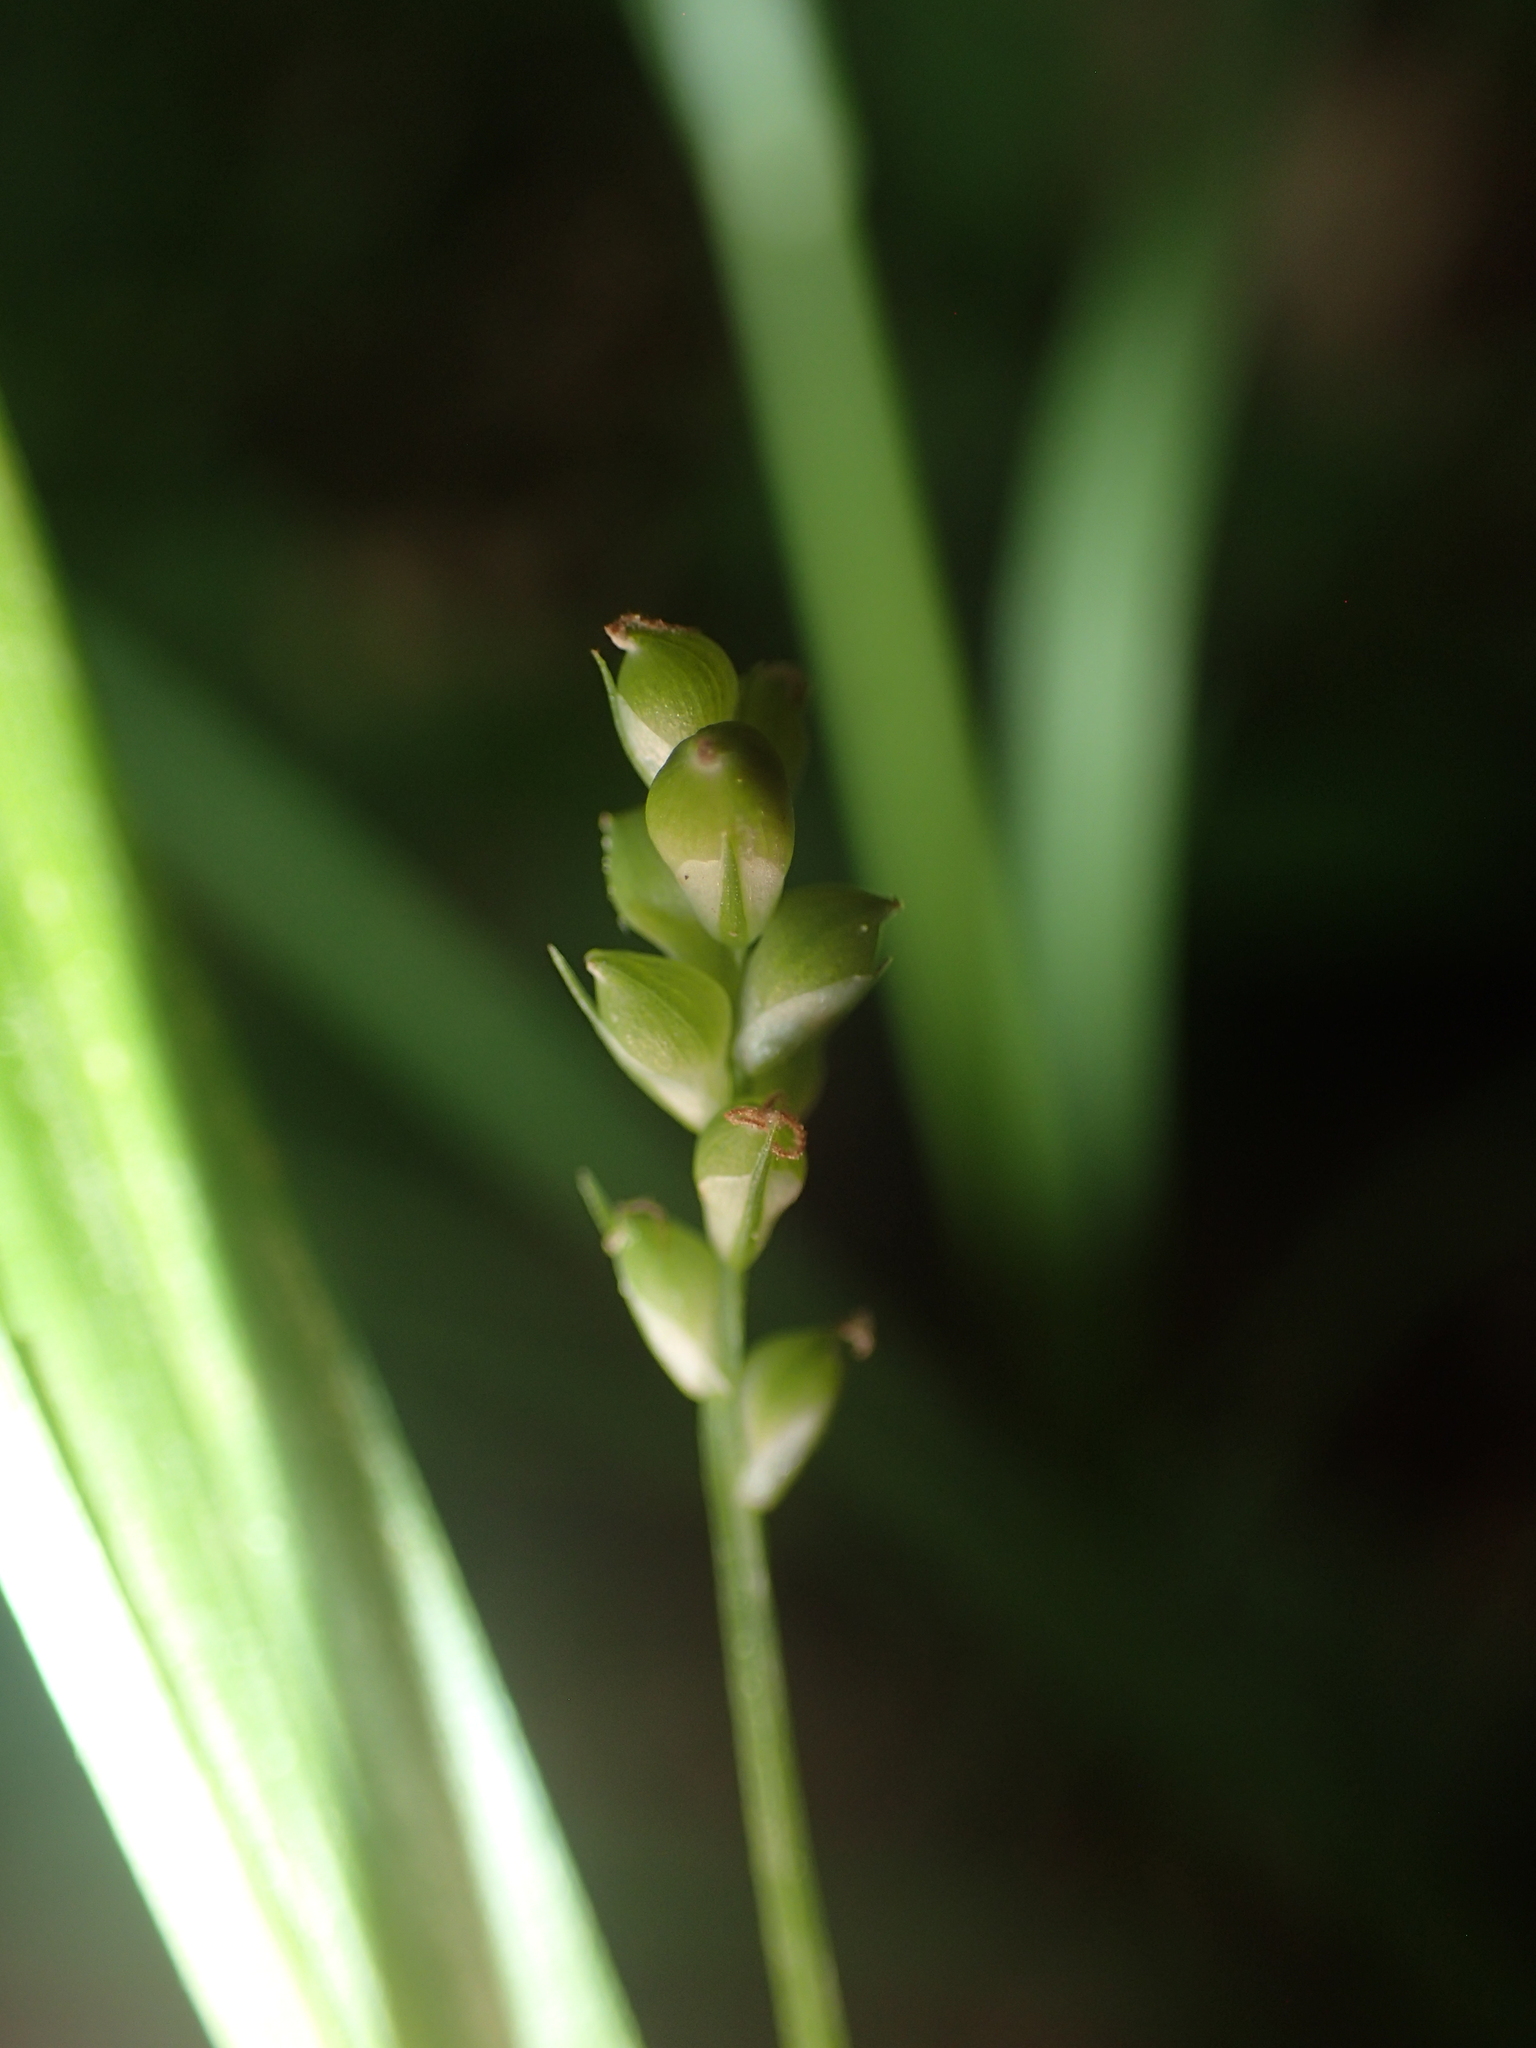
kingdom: Plantae
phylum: Tracheophyta
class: Liliopsida
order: Poales
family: Cyperaceae
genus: Carex
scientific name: Carex blanda
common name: Bland sedge
